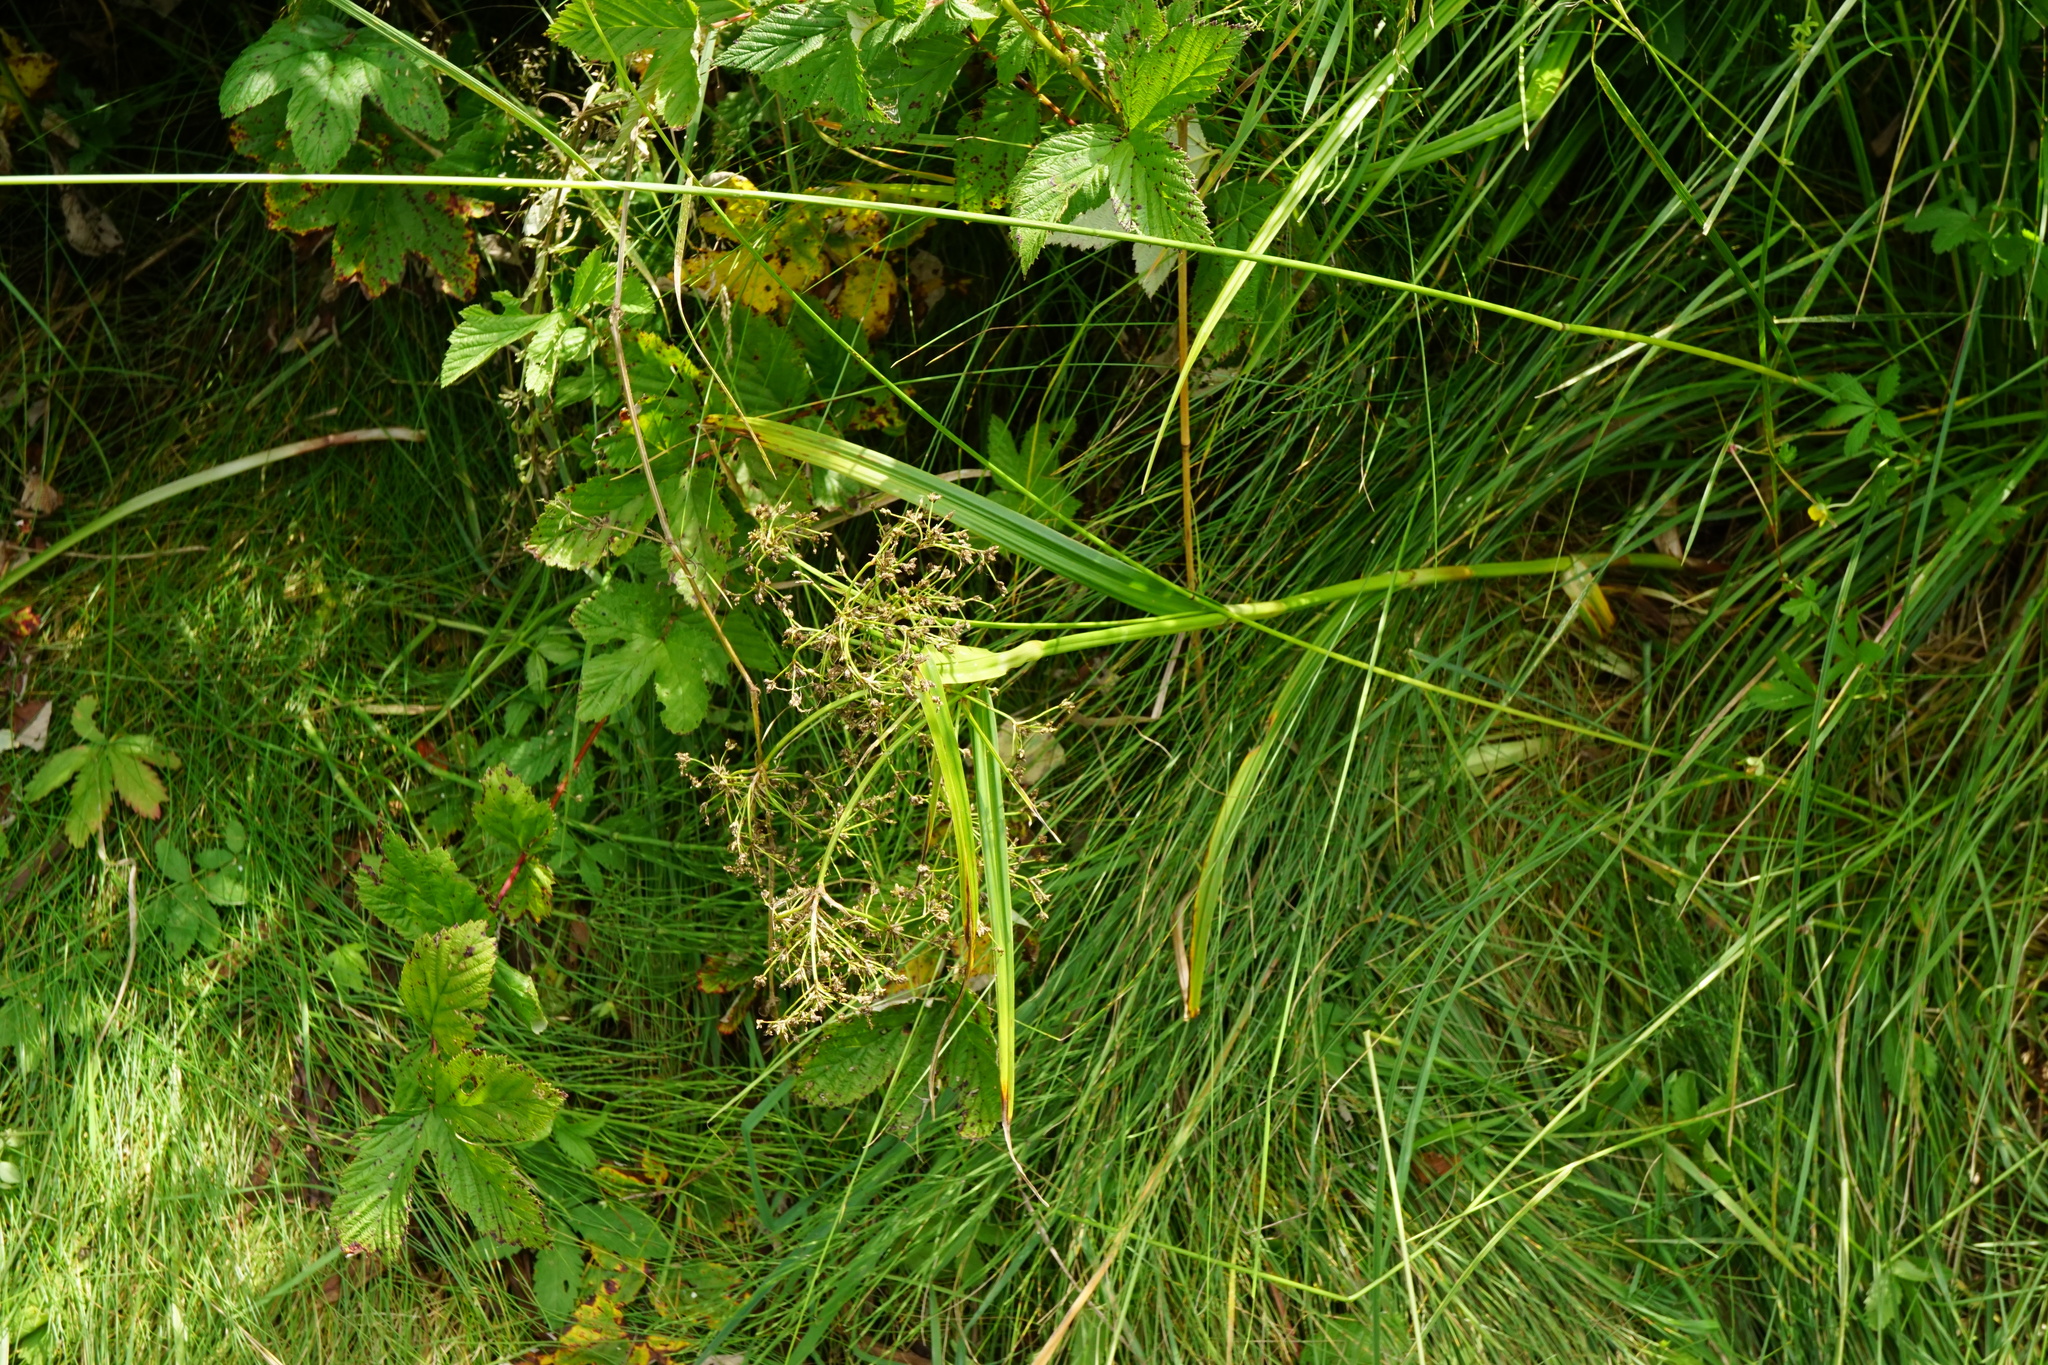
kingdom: Plantae
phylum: Tracheophyta
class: Liliopsida
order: Poales
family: Cyperaceae
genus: Scirpus
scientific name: Scirpus sylvaticus
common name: Wood club-rush
